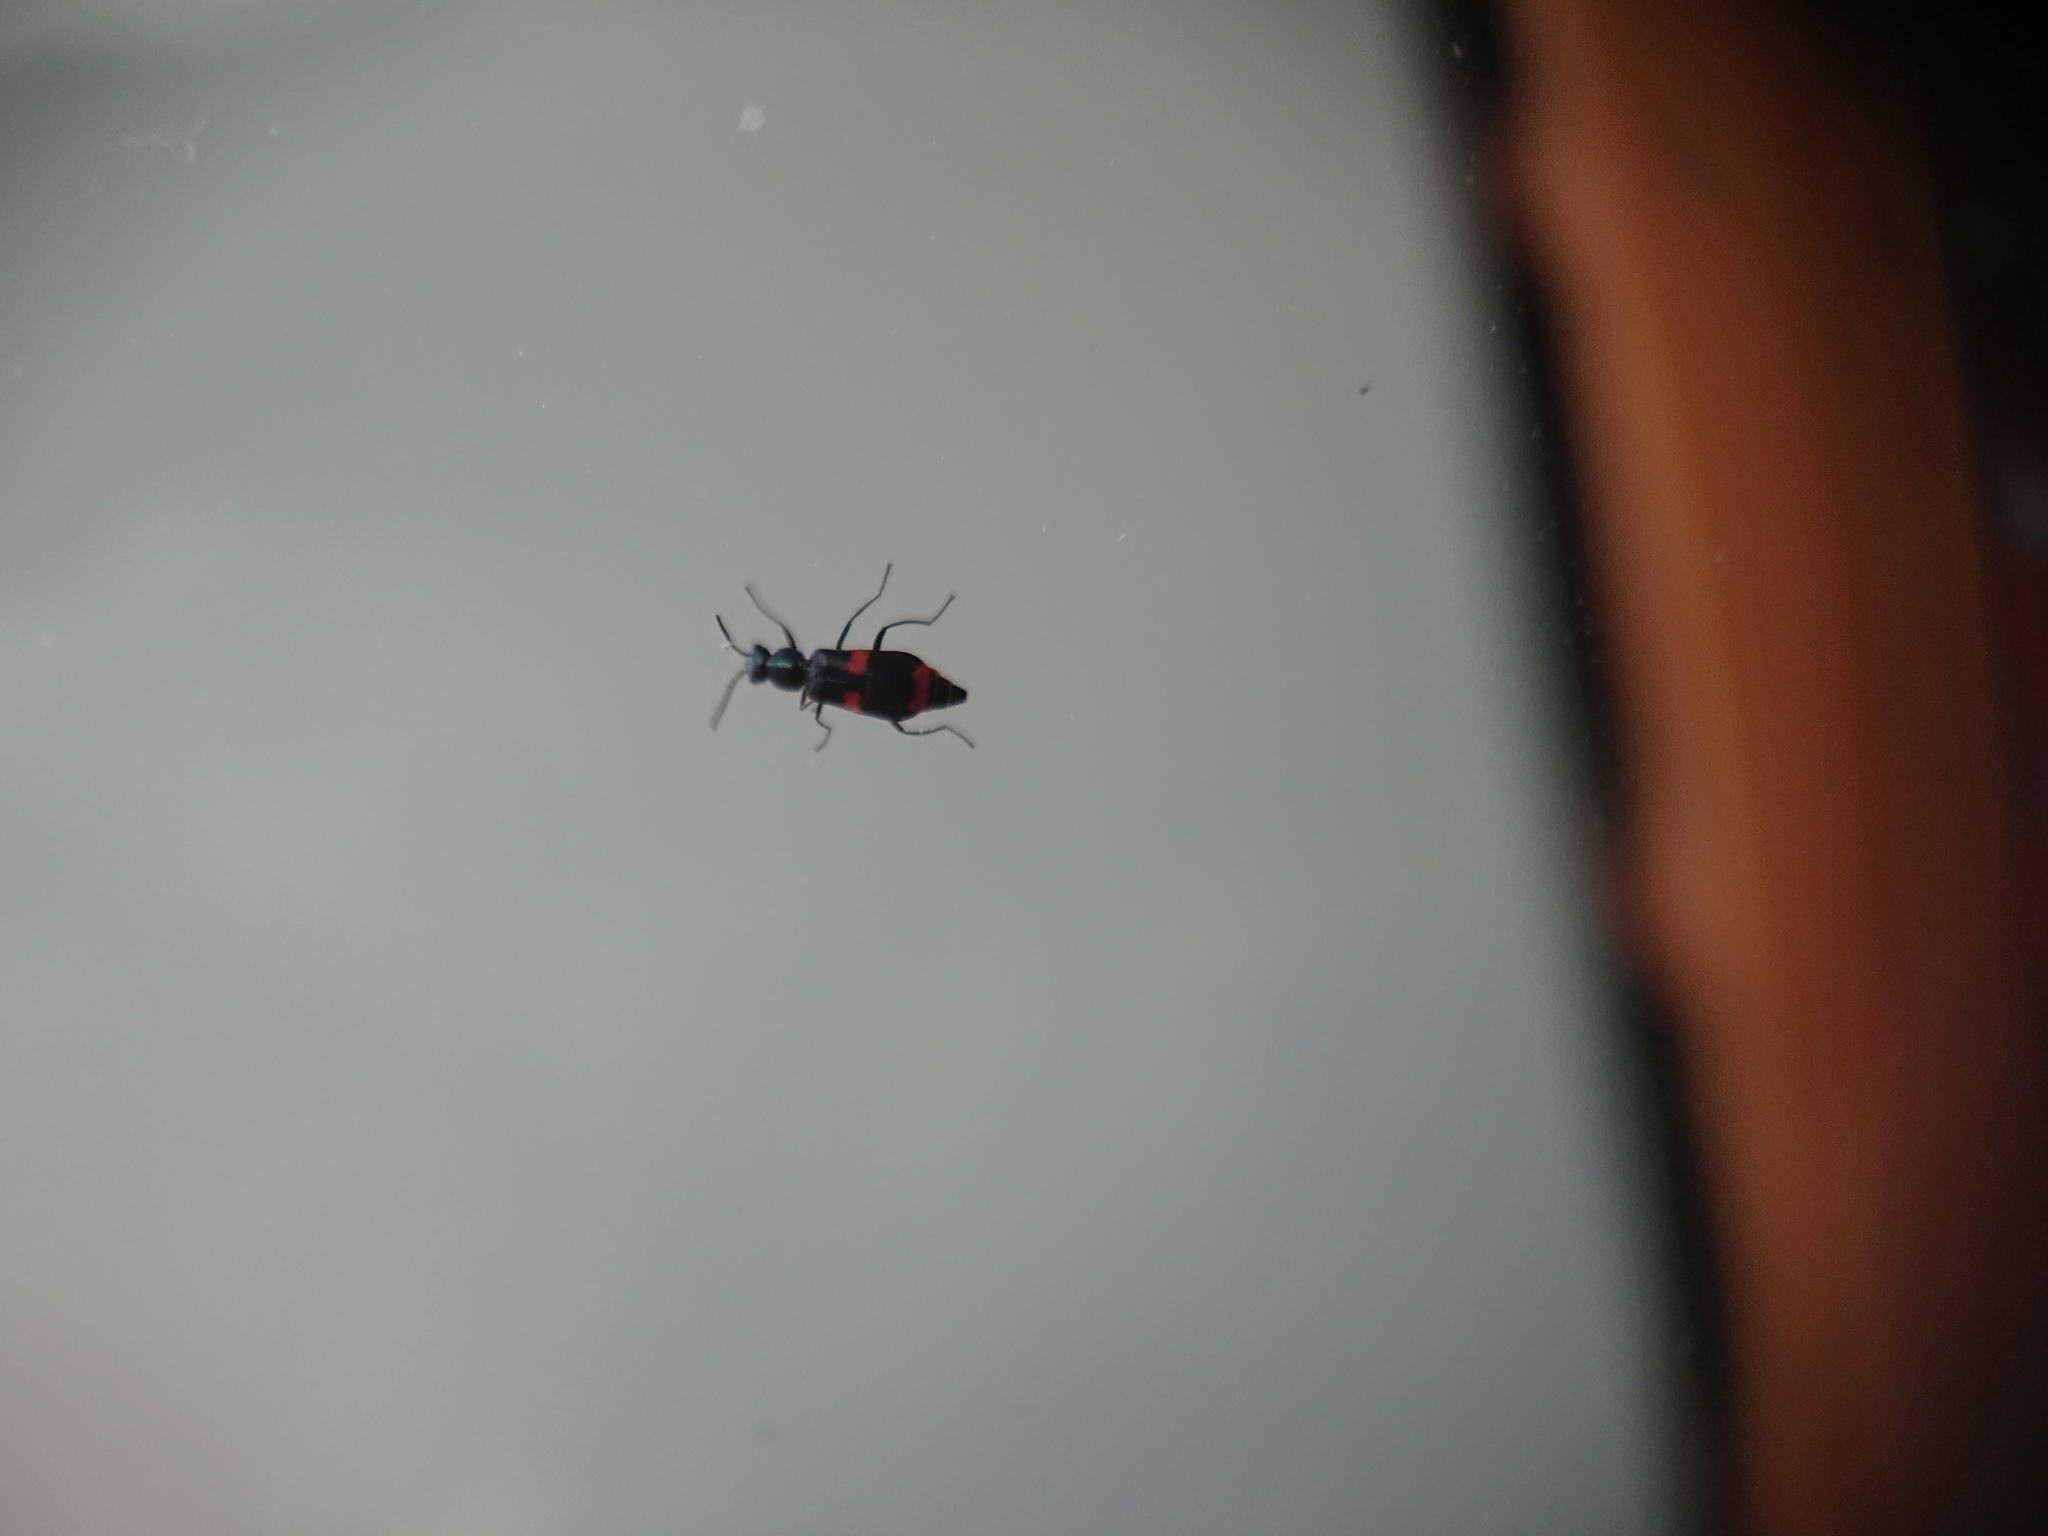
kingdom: Animalia
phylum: Arthropoda
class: Insecta
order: Coleoptera
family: Melyridae
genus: Anthocomus
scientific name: Anthocomus fasciatus
